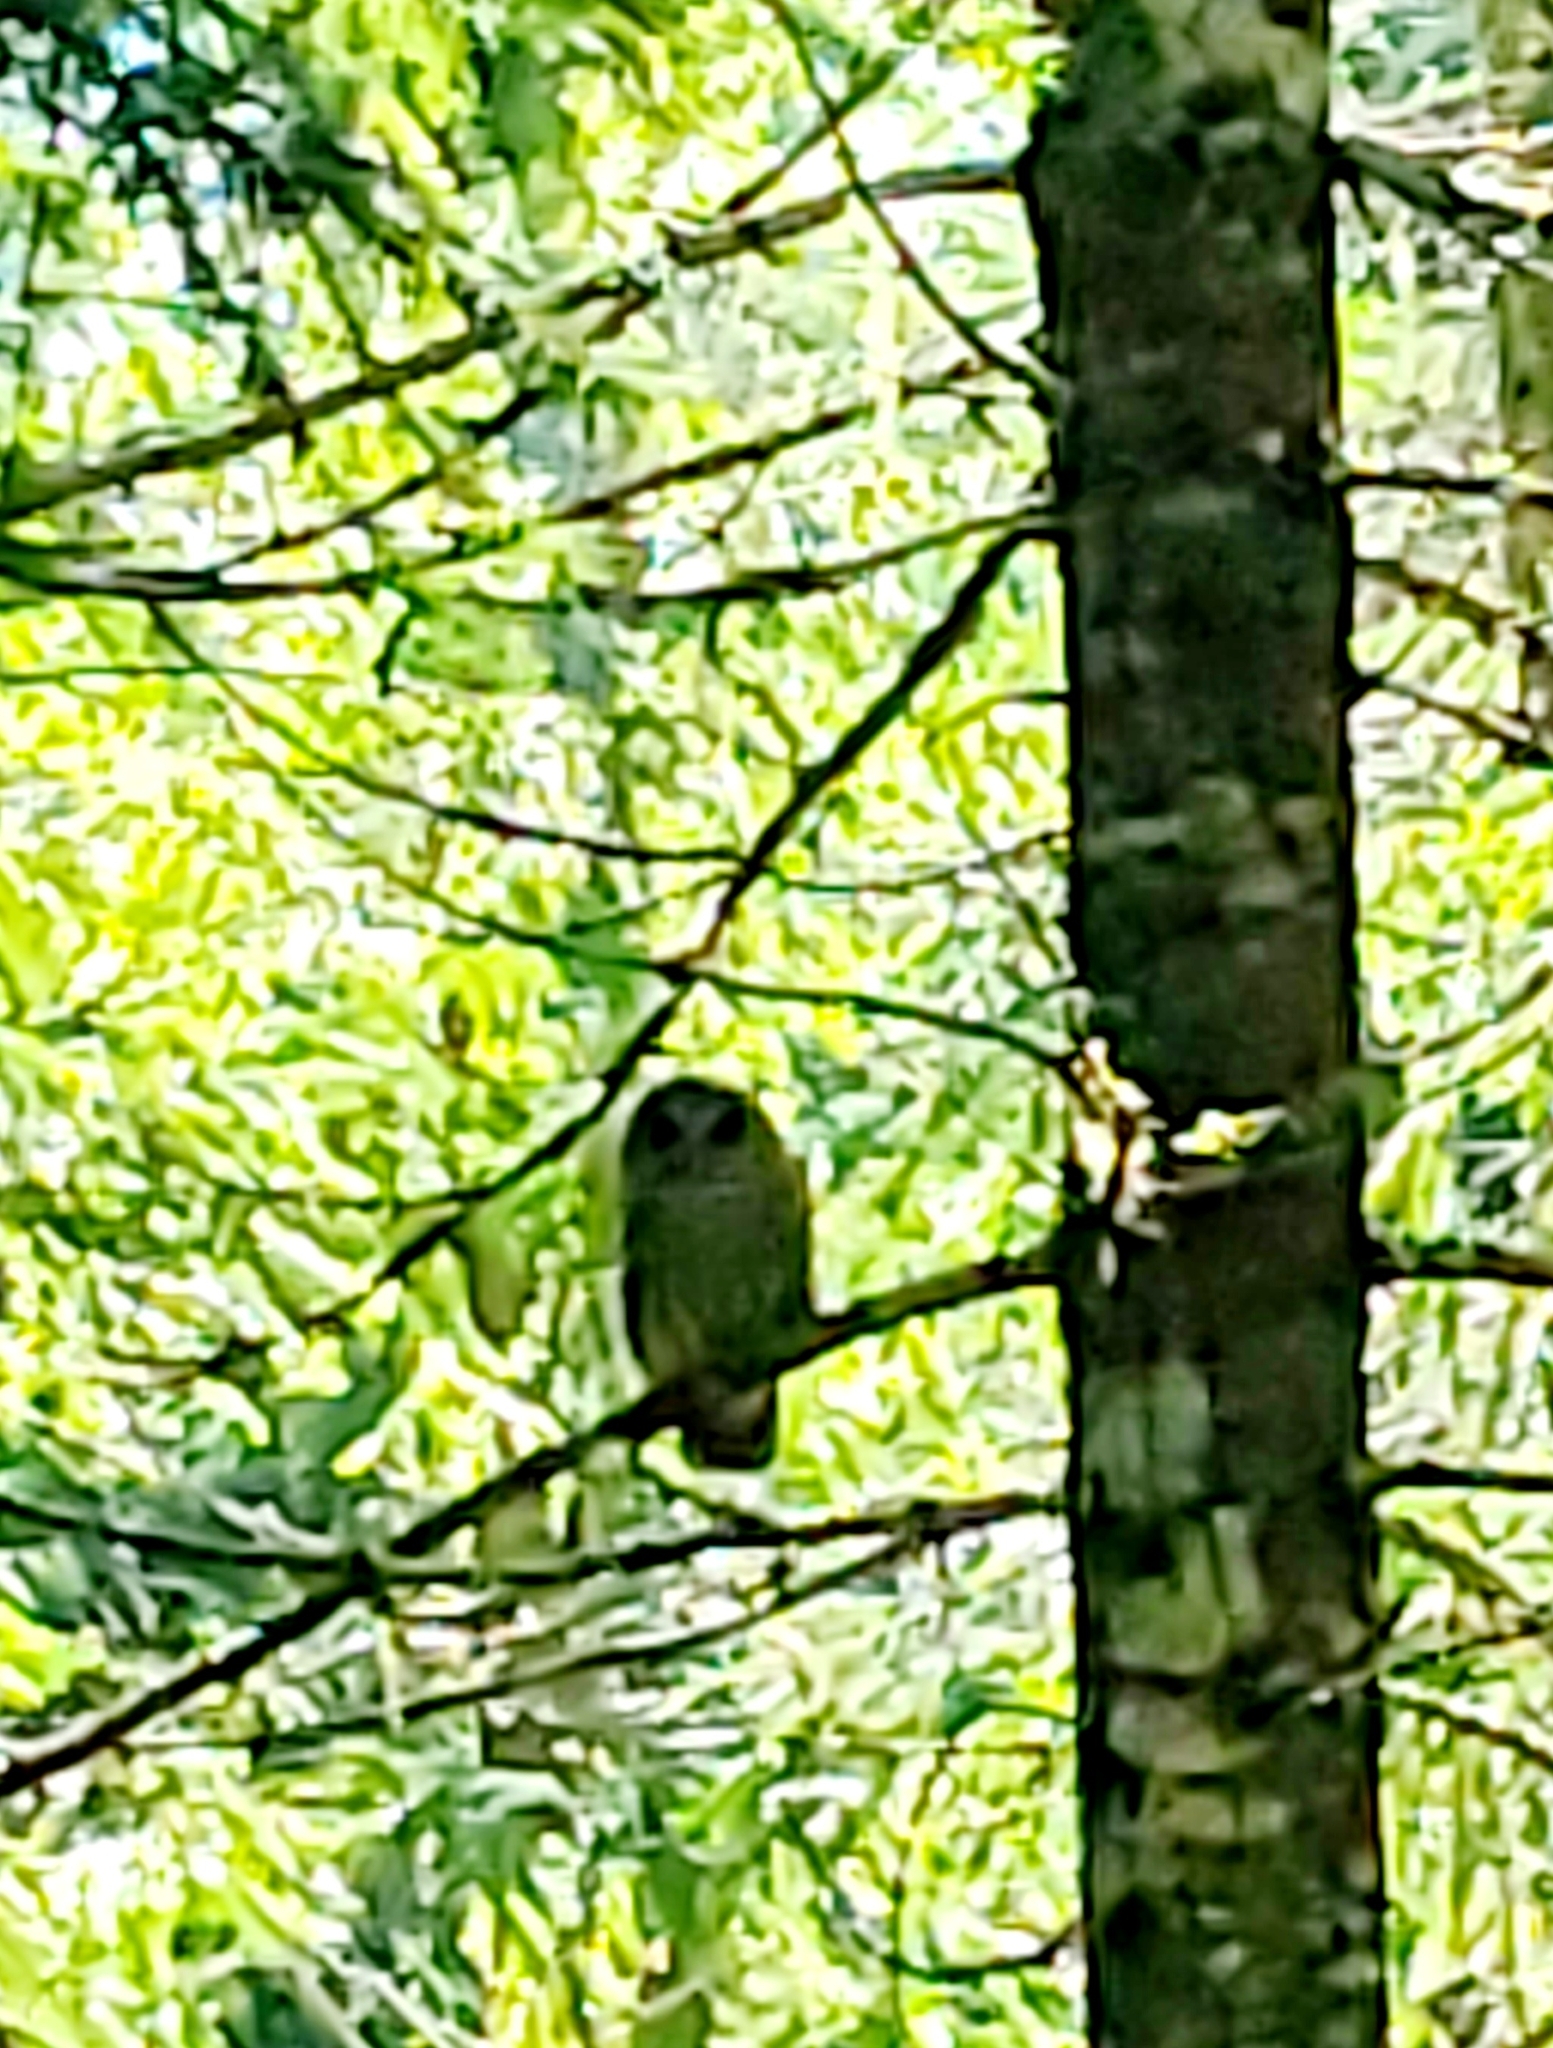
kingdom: Animalia
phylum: Chordata
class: Aves
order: Strigiformes
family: Strigidae
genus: Strix
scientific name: Strix varia
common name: Barred owl
